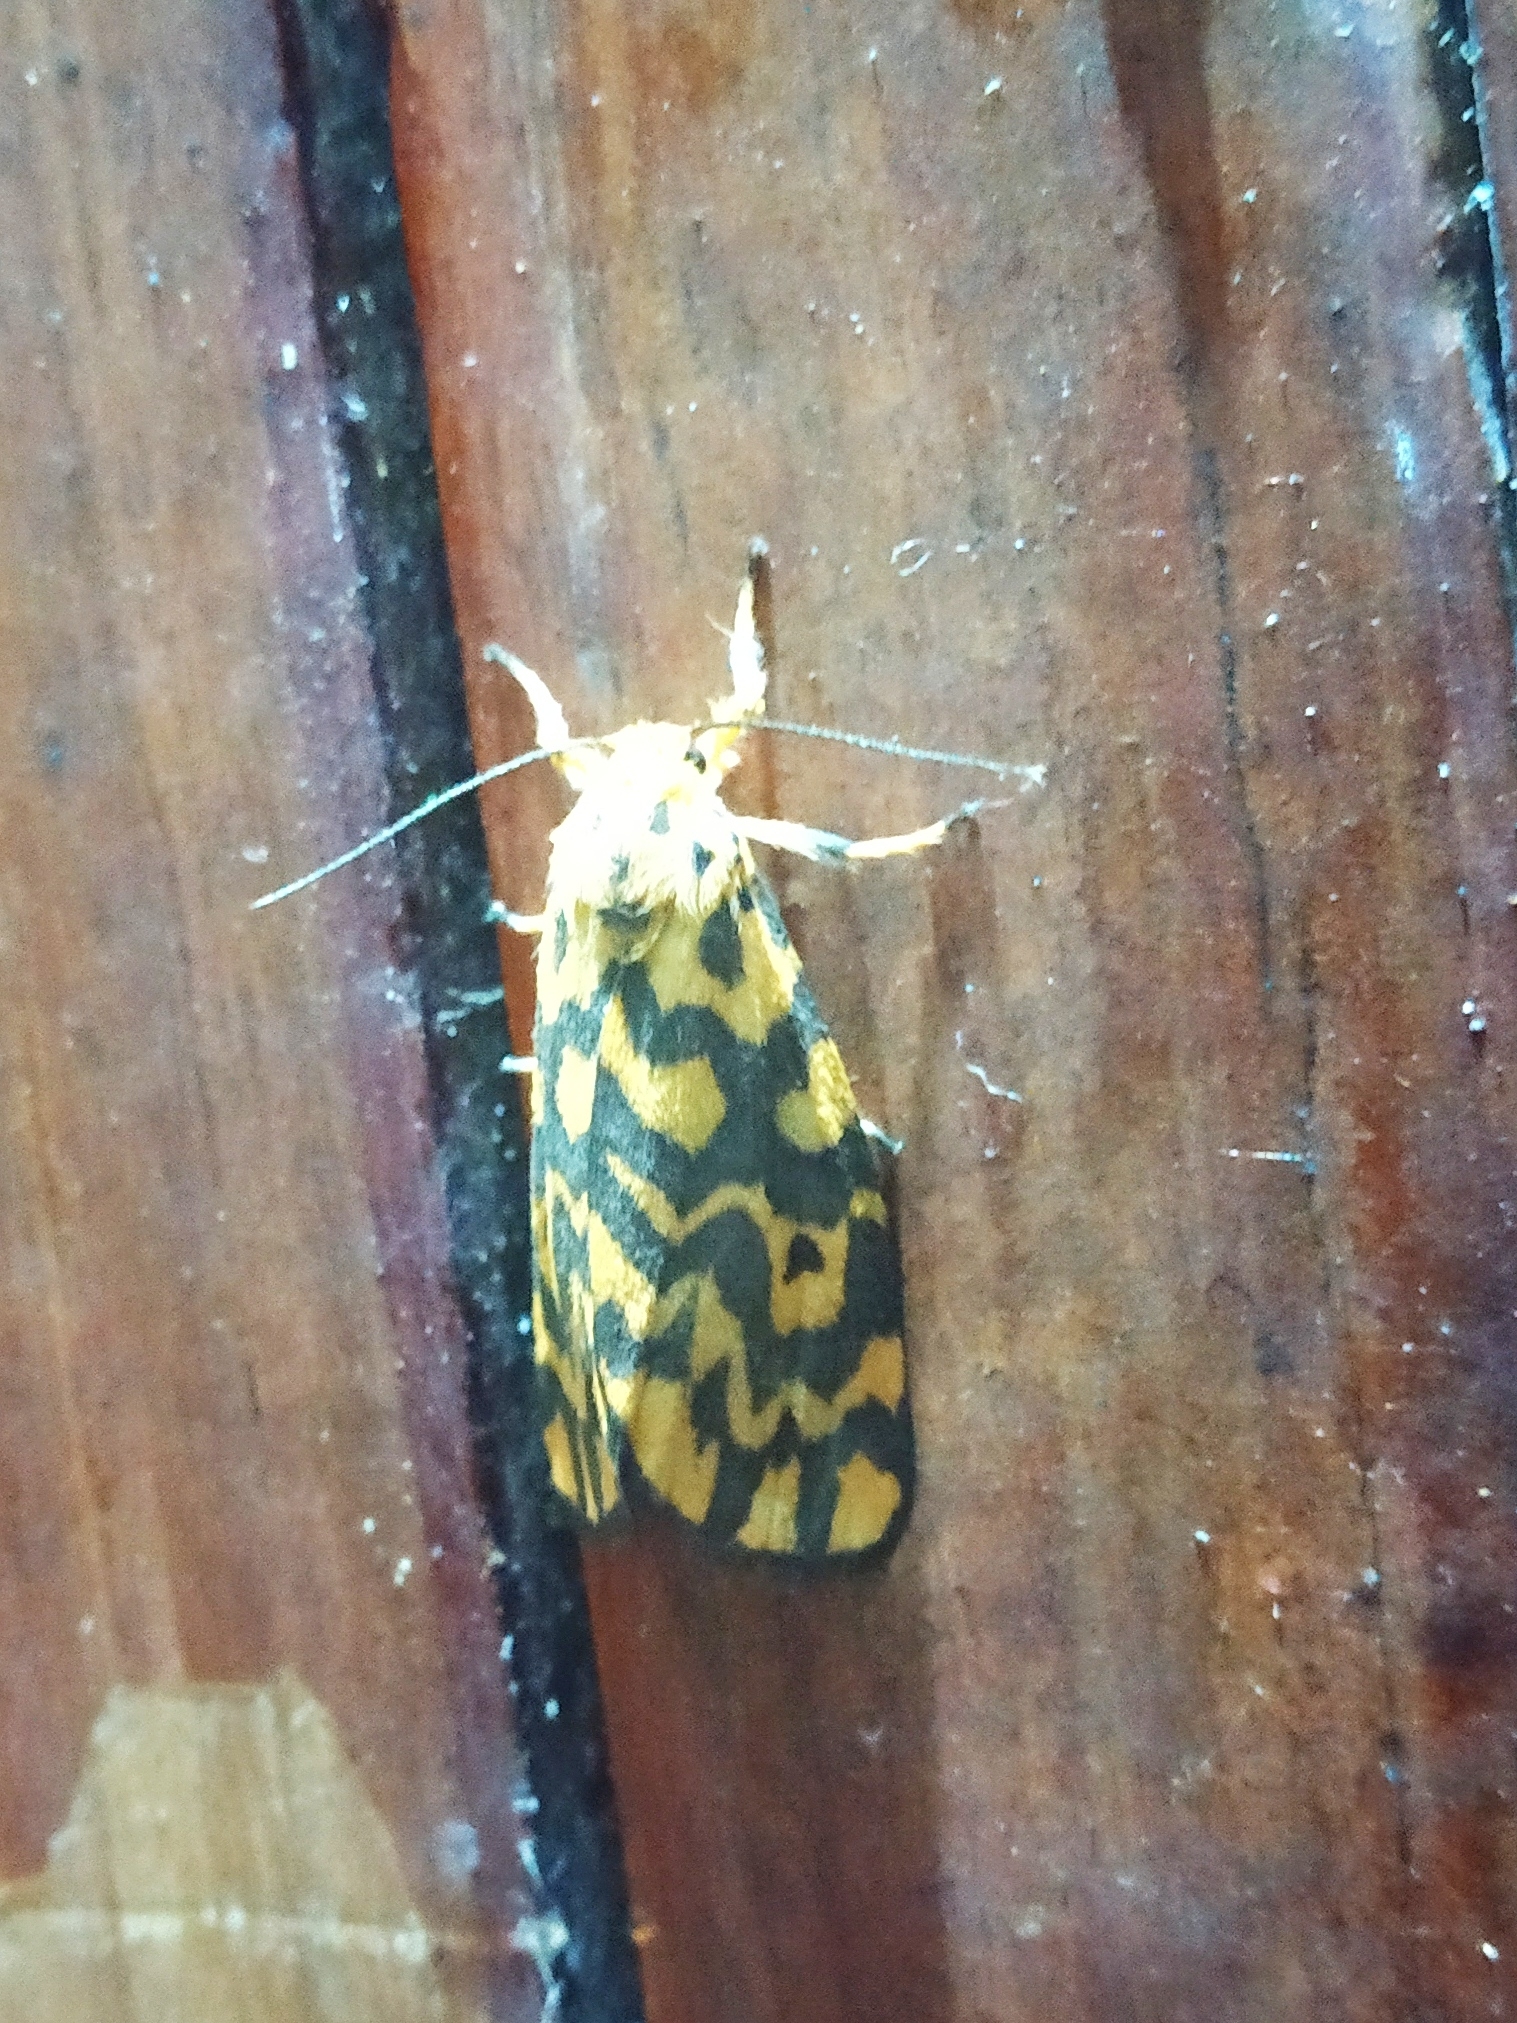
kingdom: Animalia
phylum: Arthropoda
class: Insecta
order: Lepidoptera
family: Erebidae
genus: Nepita
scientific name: Nepita conferta
